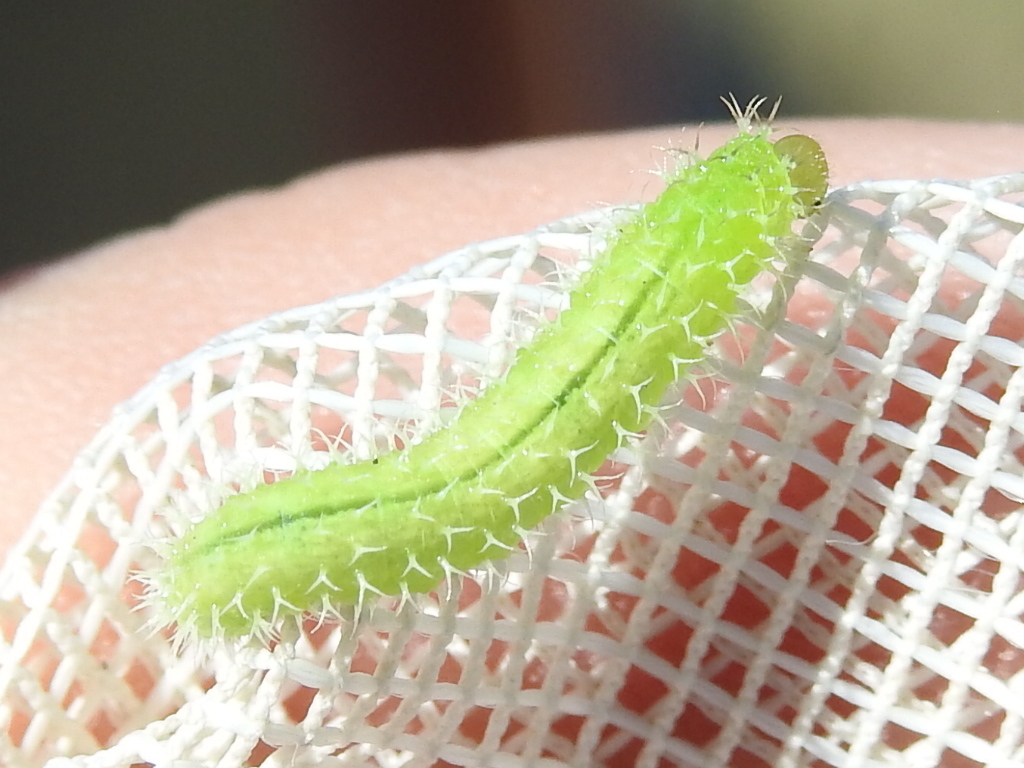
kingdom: Animalia
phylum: Arthropoda
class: Insecta
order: Hymenoptera
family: Tenthredinidae
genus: Monophadnoides
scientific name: Monophadnoides rubi
